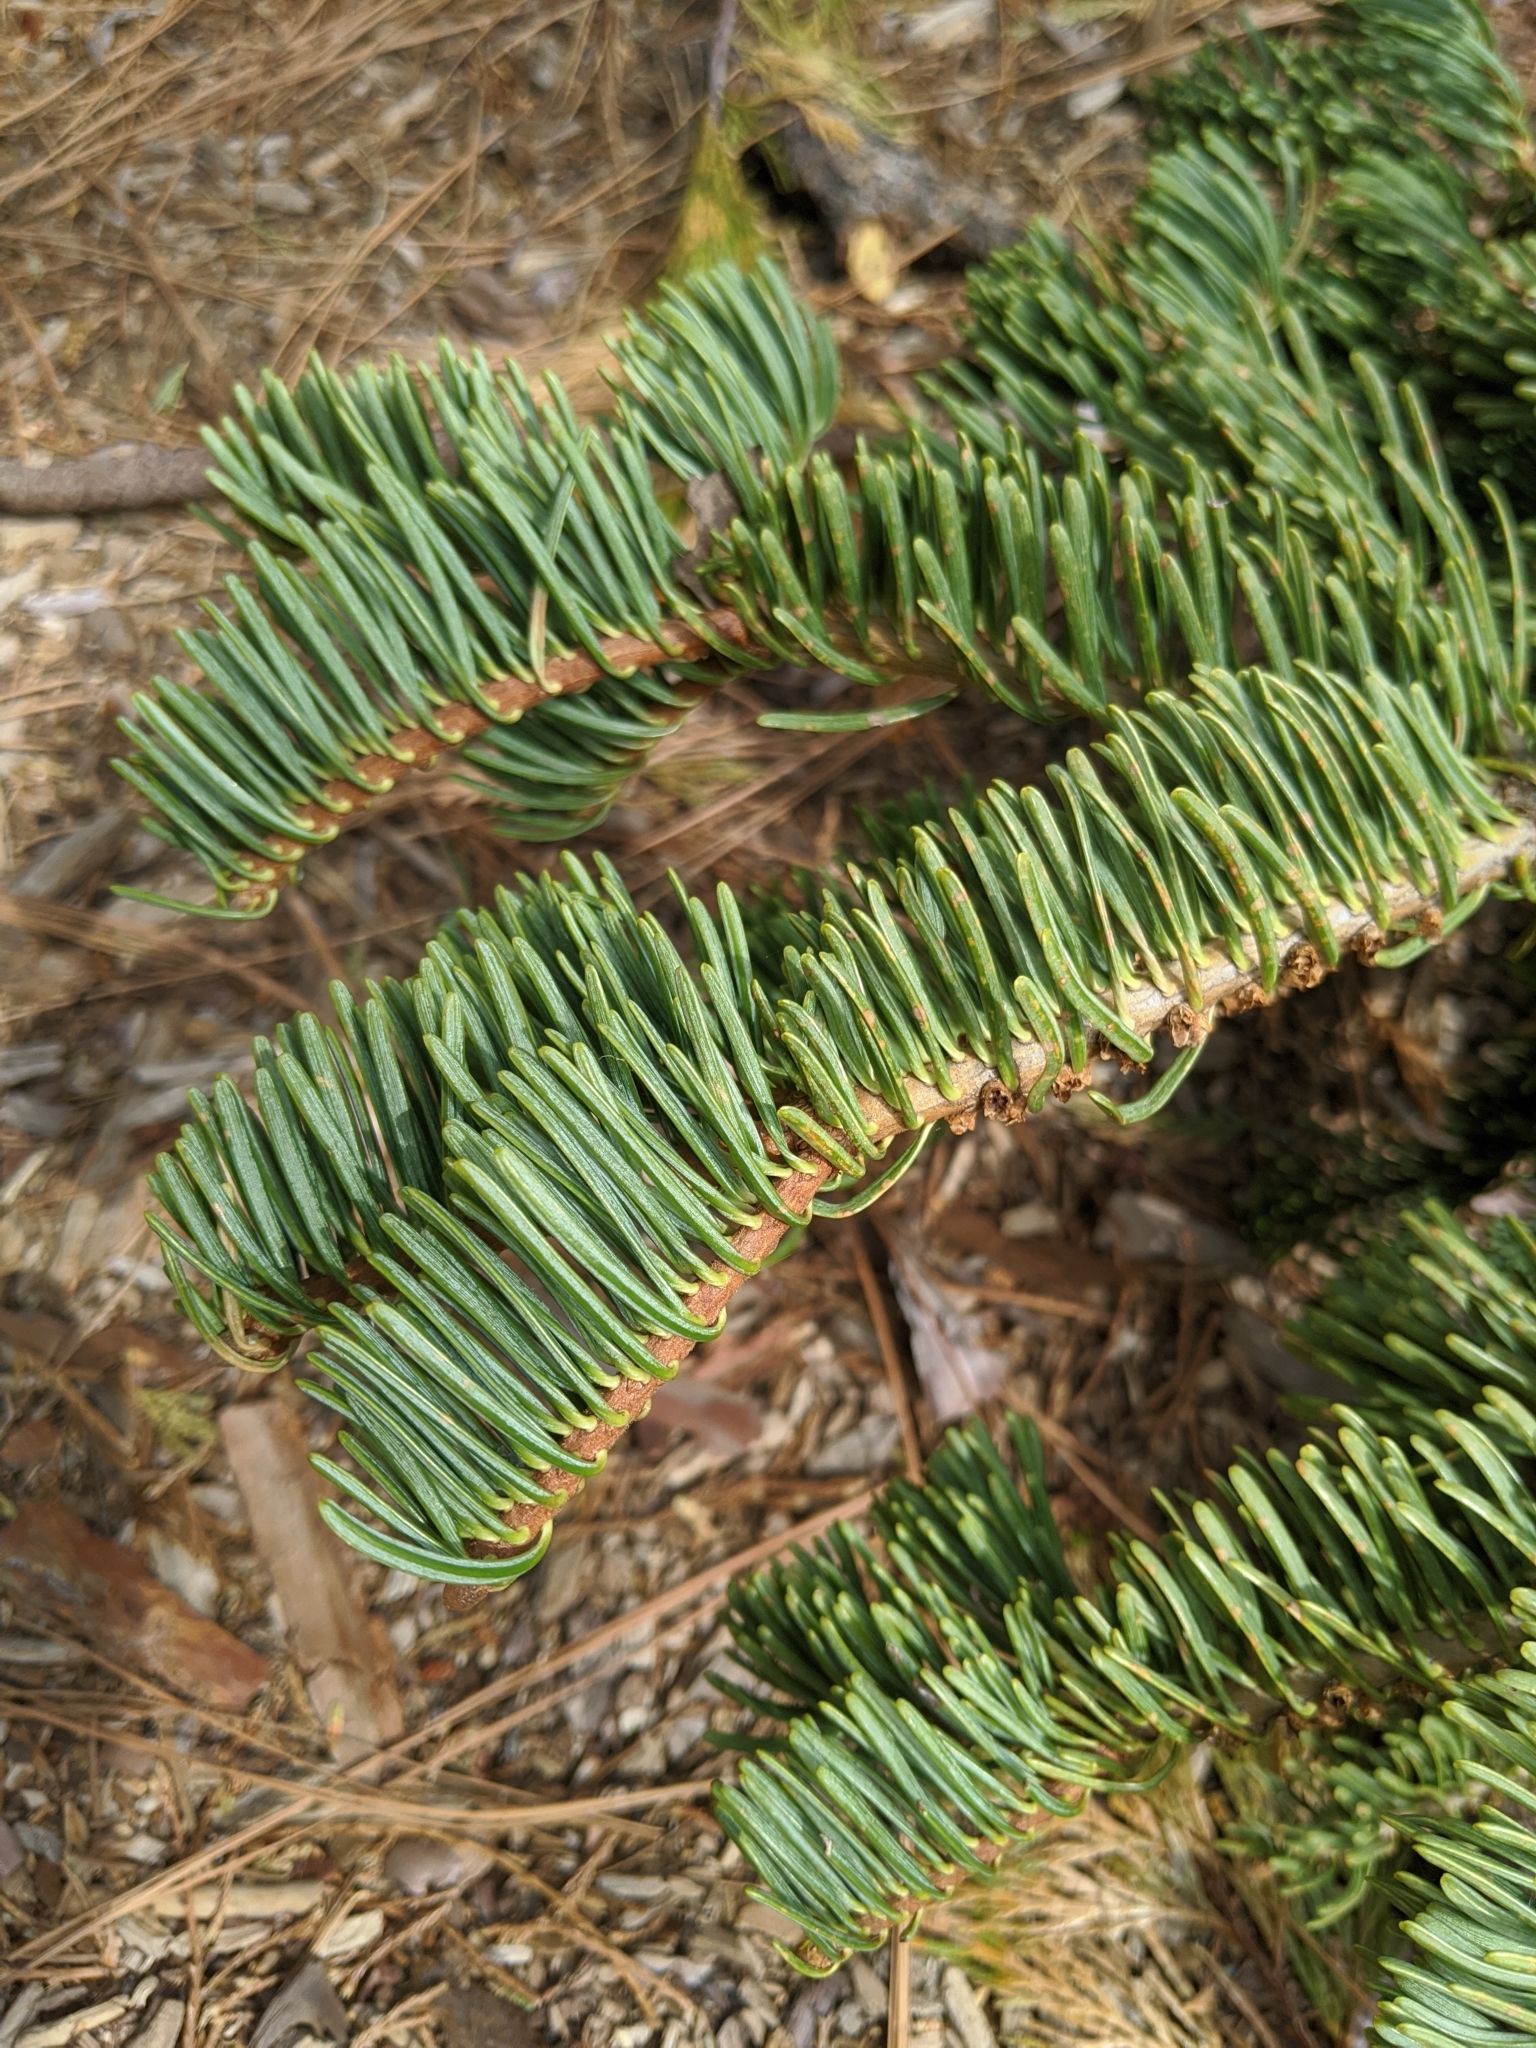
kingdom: Plantae
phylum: Tracheophyta
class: Pinopsida
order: Pinales
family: Cupressaceae
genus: Sequoiadendron
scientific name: Sequoiadendron giganteum
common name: Wellingtonia
